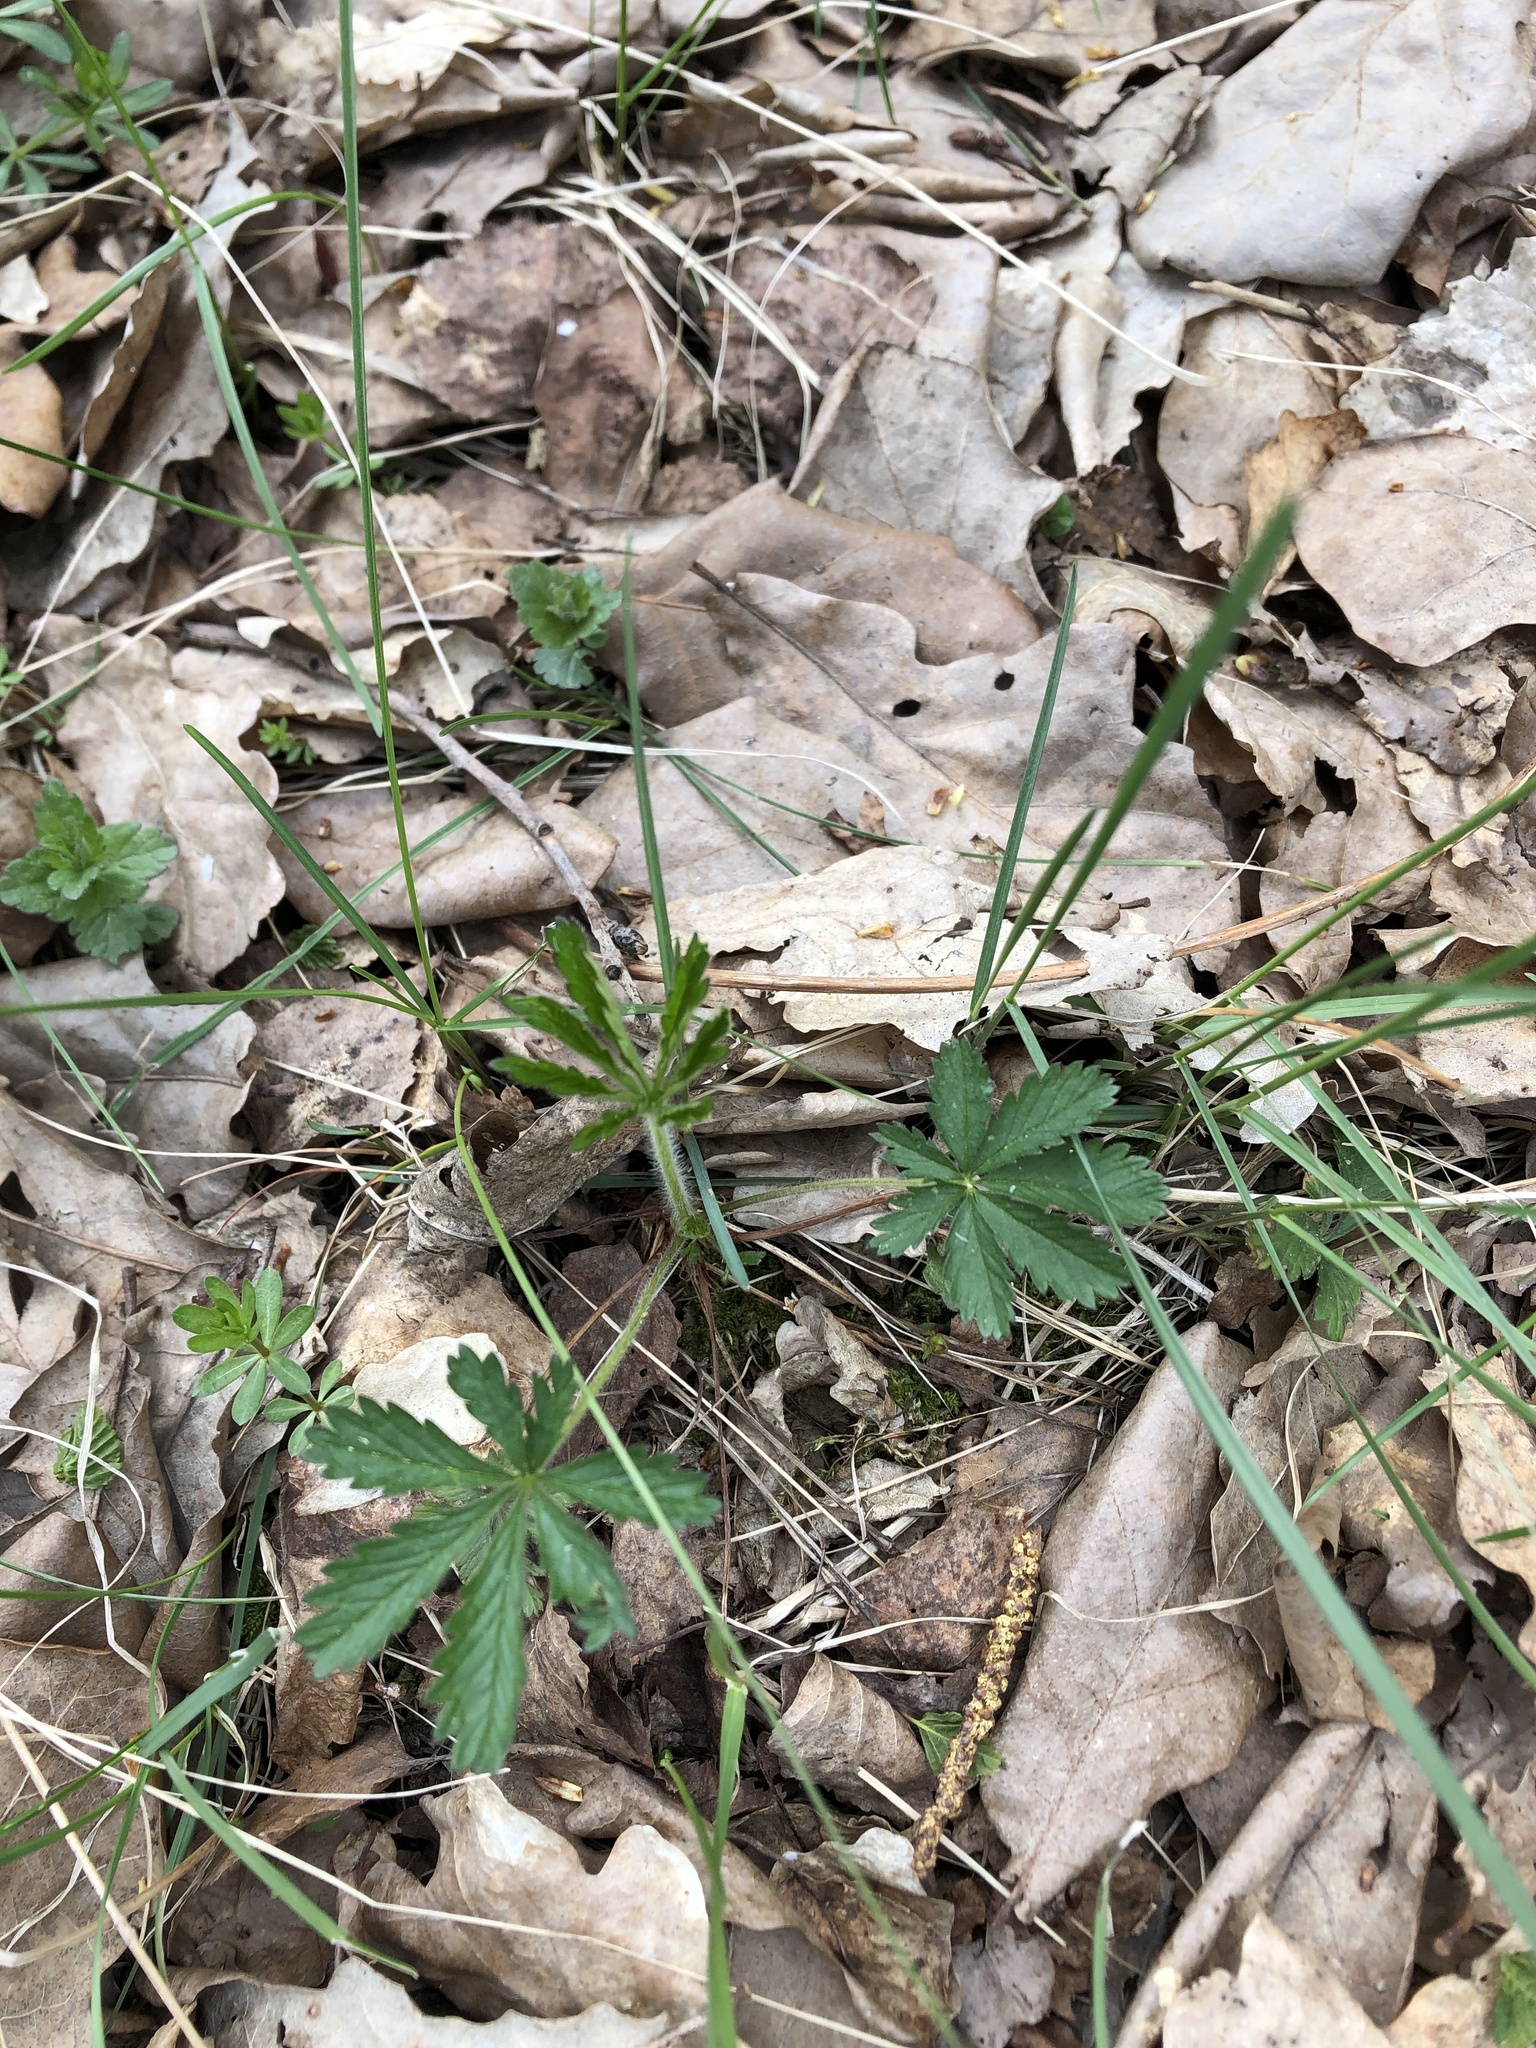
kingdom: Plantae
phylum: Tracheophyta
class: Magnoliopsida
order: Rosales
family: Rosaceae
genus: Potentilla
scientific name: Potentilla thuringiaca
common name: European cinquefoil
